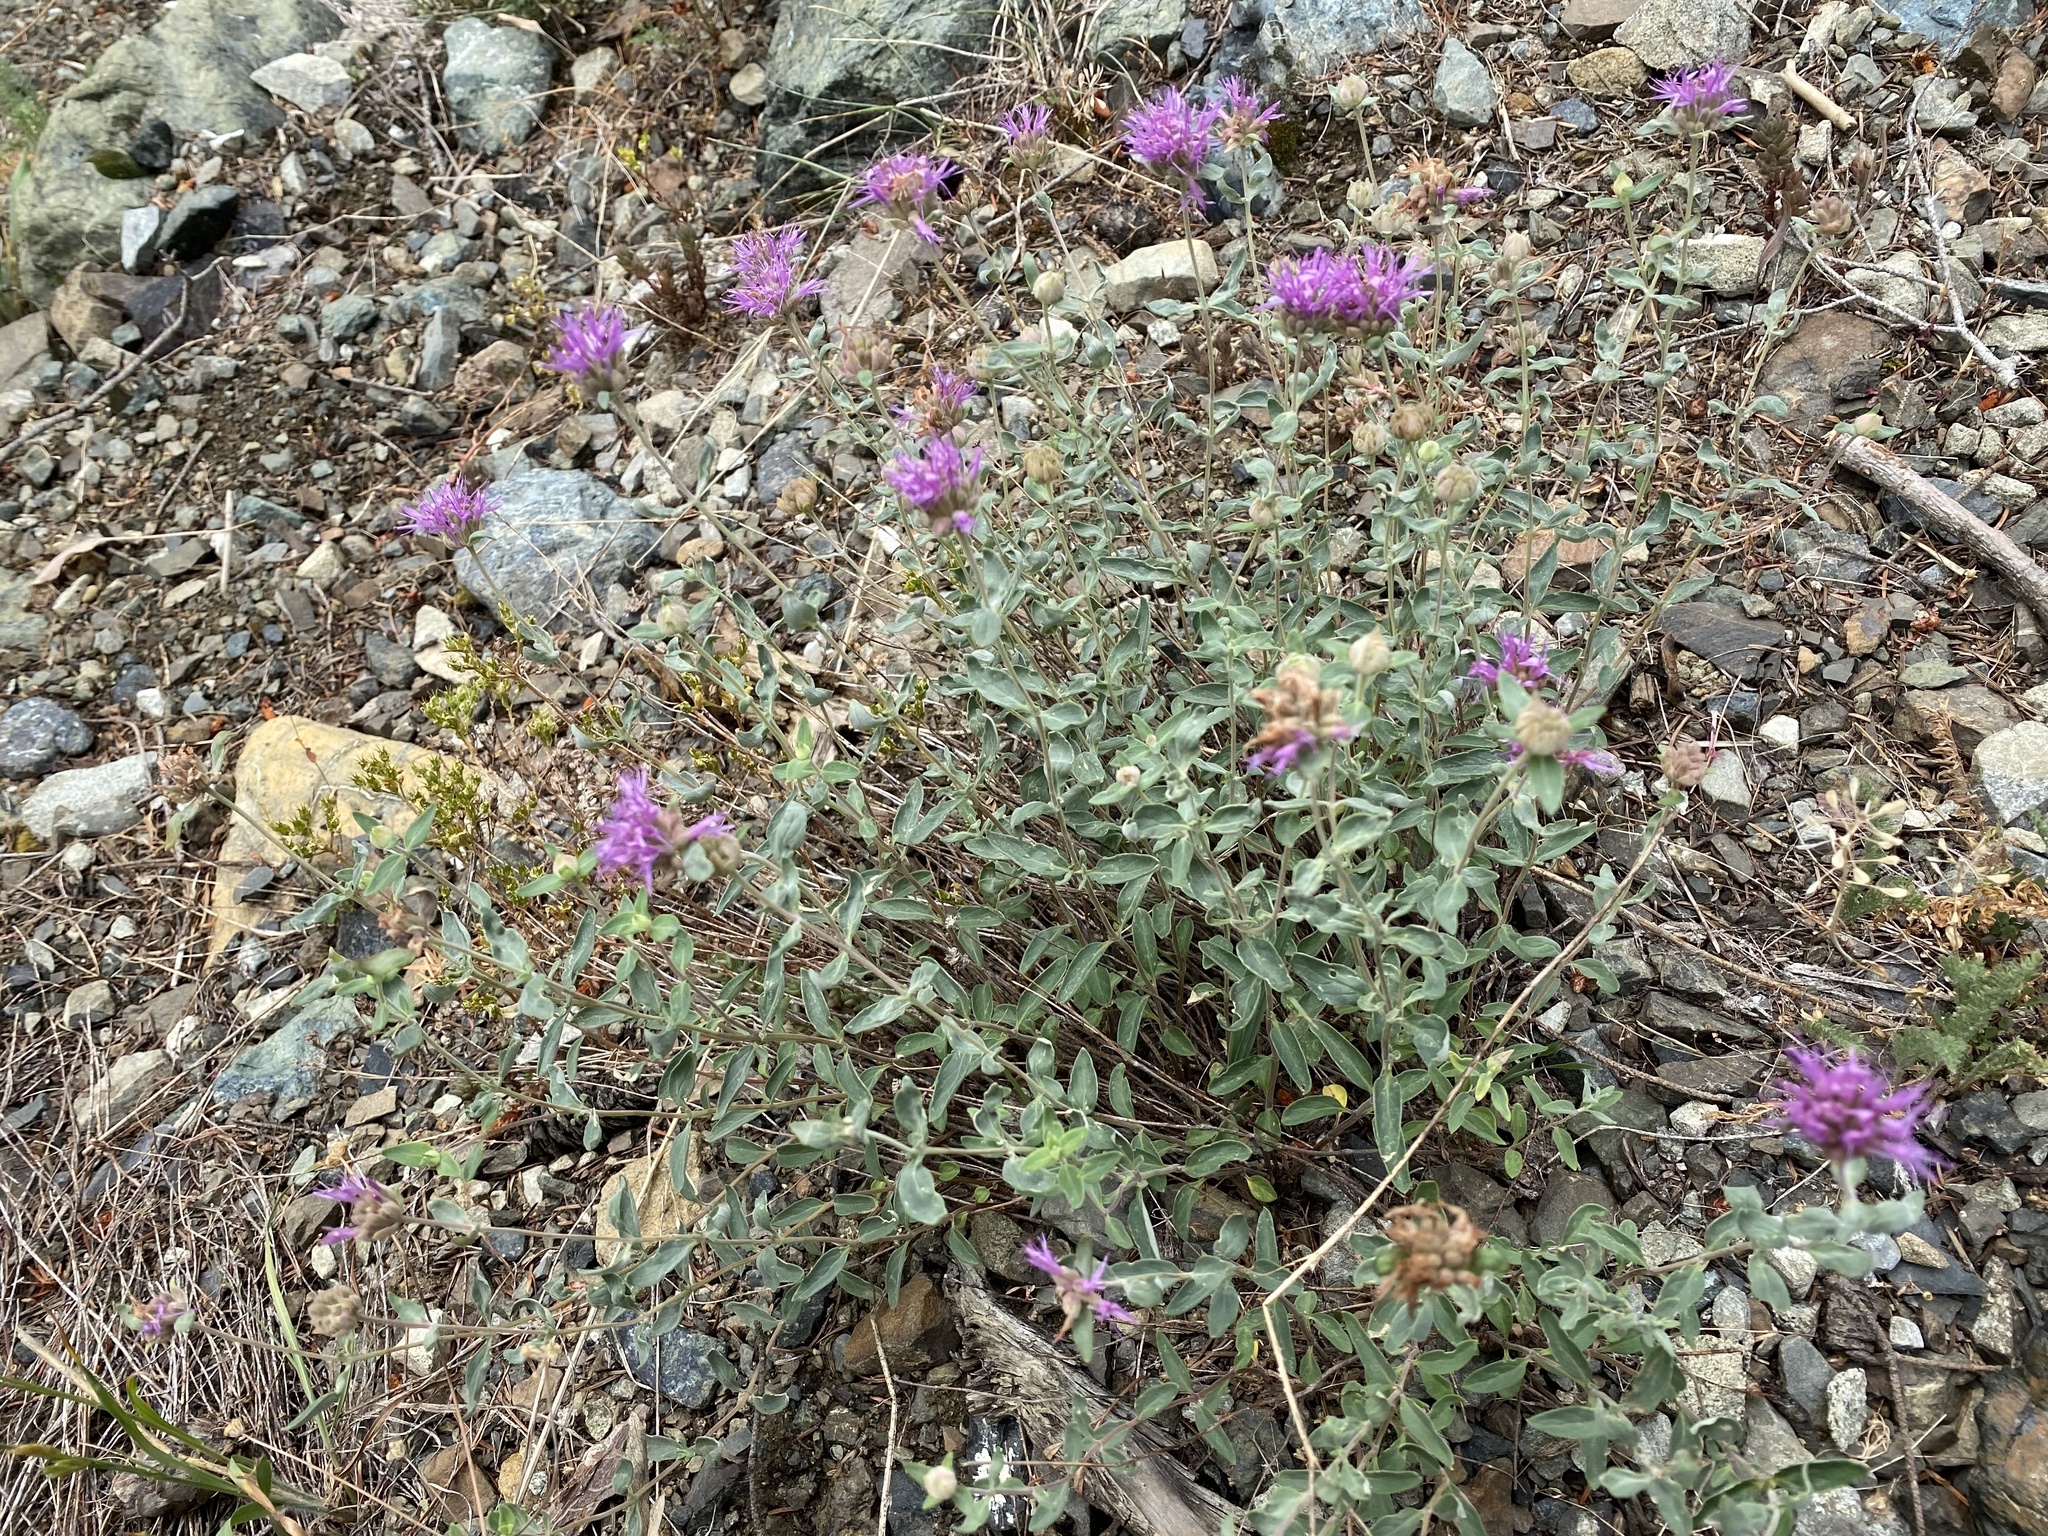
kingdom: Plantae
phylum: Tracheophyta
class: Magnoliopsida
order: Lamiales
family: Lamiaceae
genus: Monardella
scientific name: Monardella odoratissima
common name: Pacific monardella
